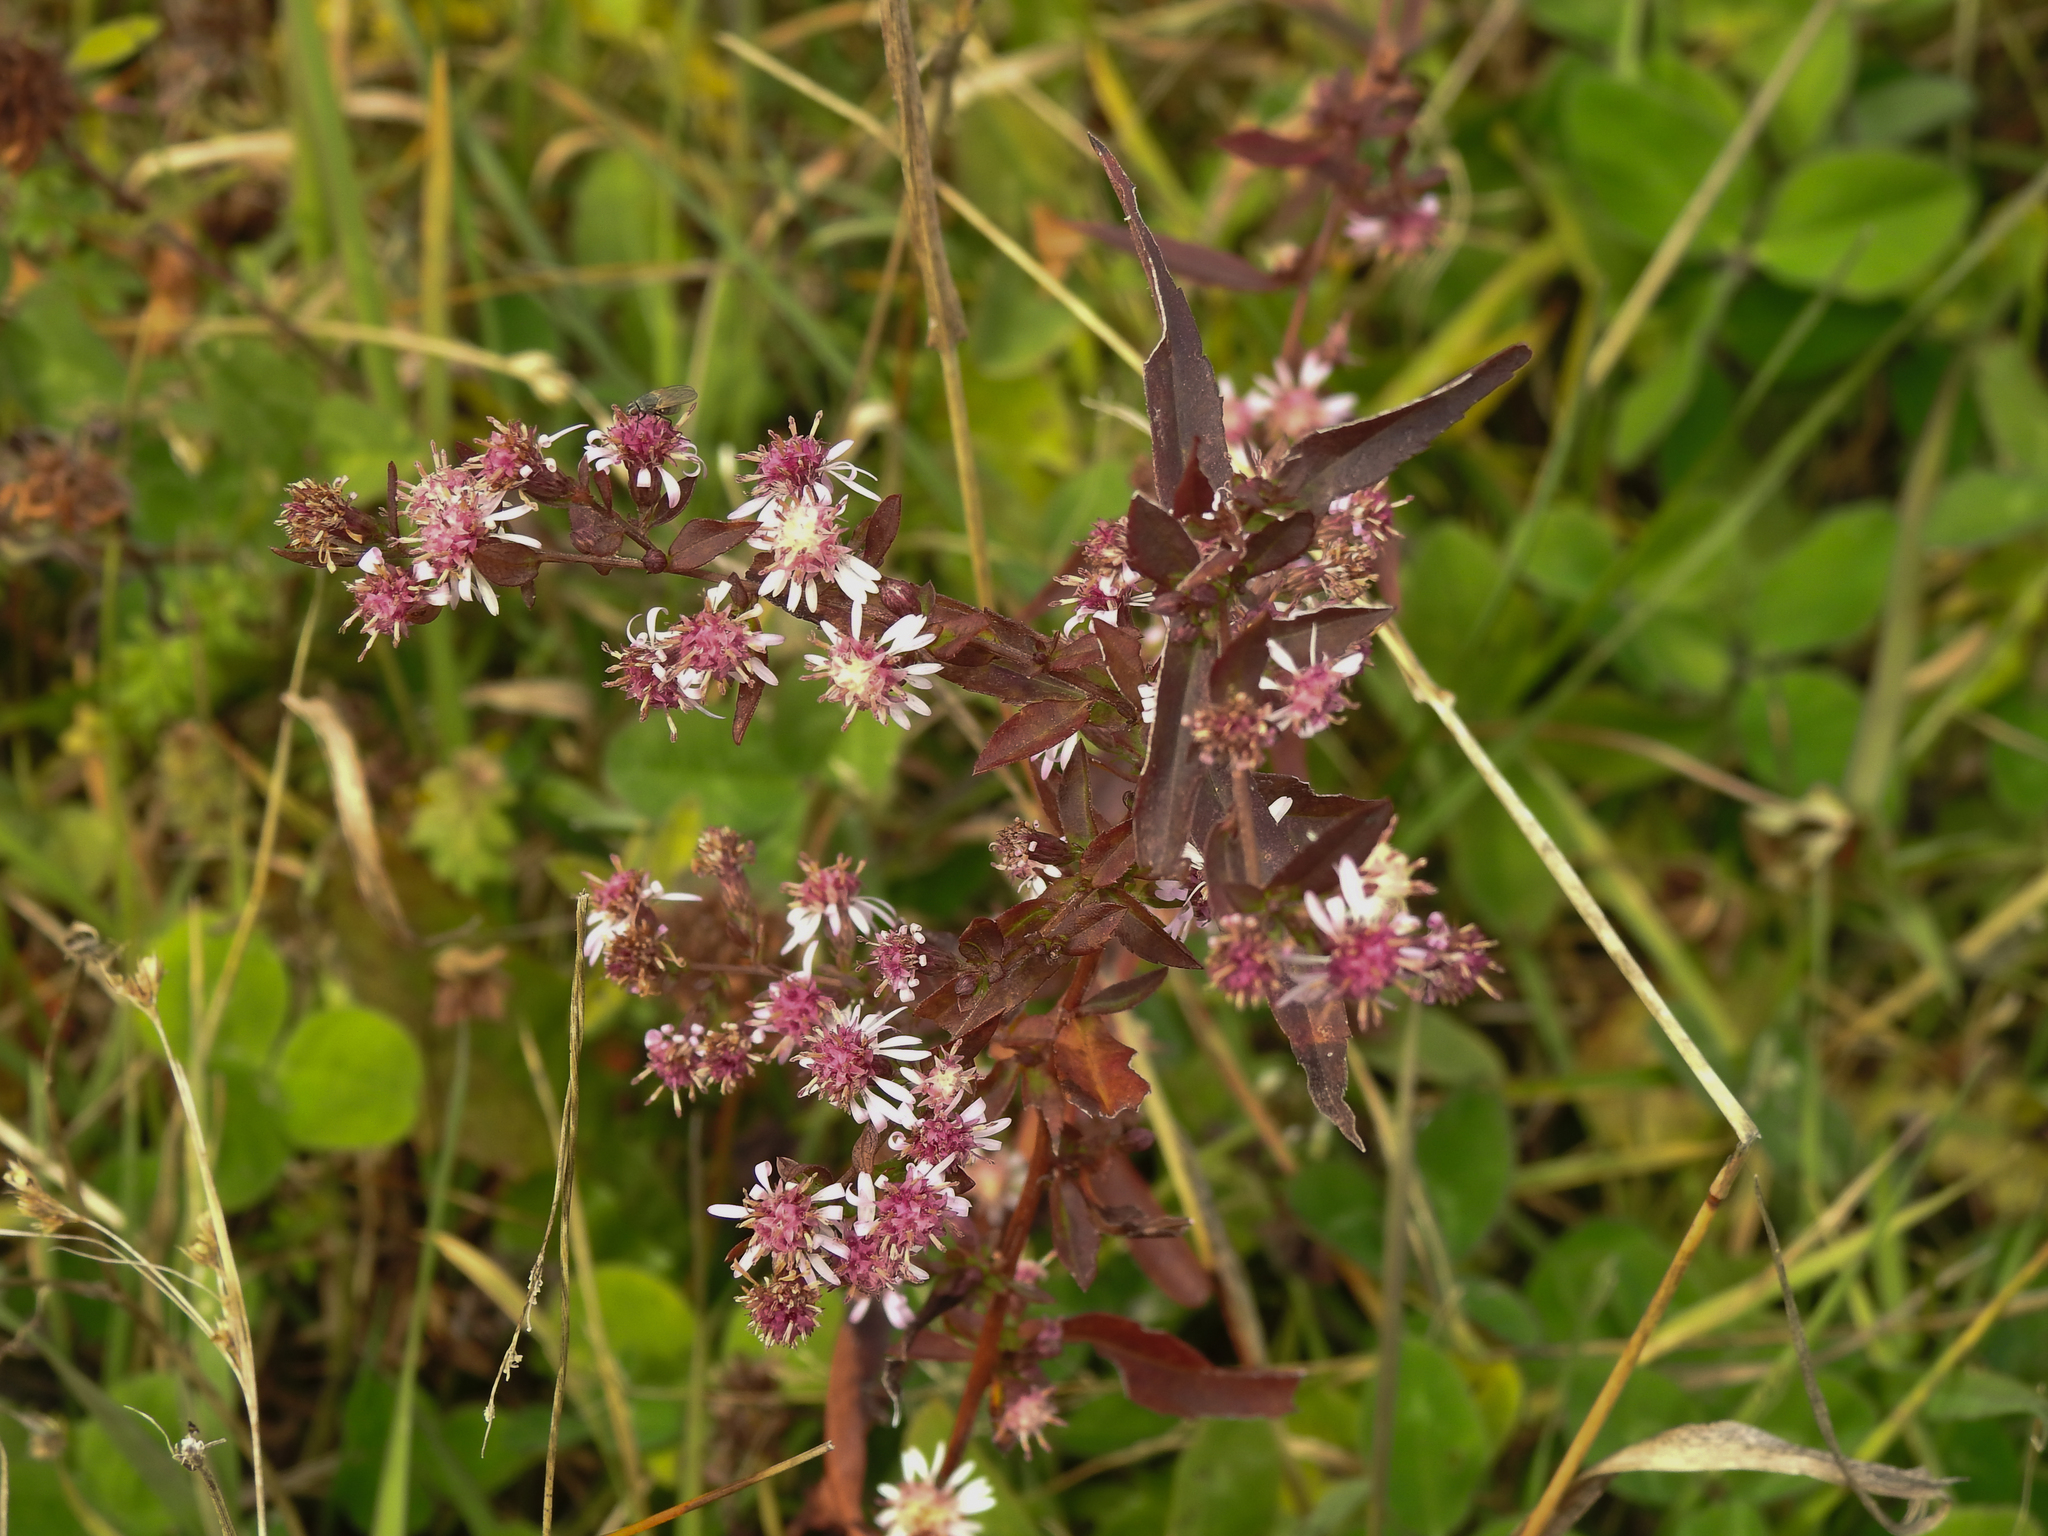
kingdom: Plantae
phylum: Tracheophyta
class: Magnoliopsida
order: Asterales
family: Asteraceae
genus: Symphyotrichum
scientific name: Symphyotrichum lateriflorum
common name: Calico aster
